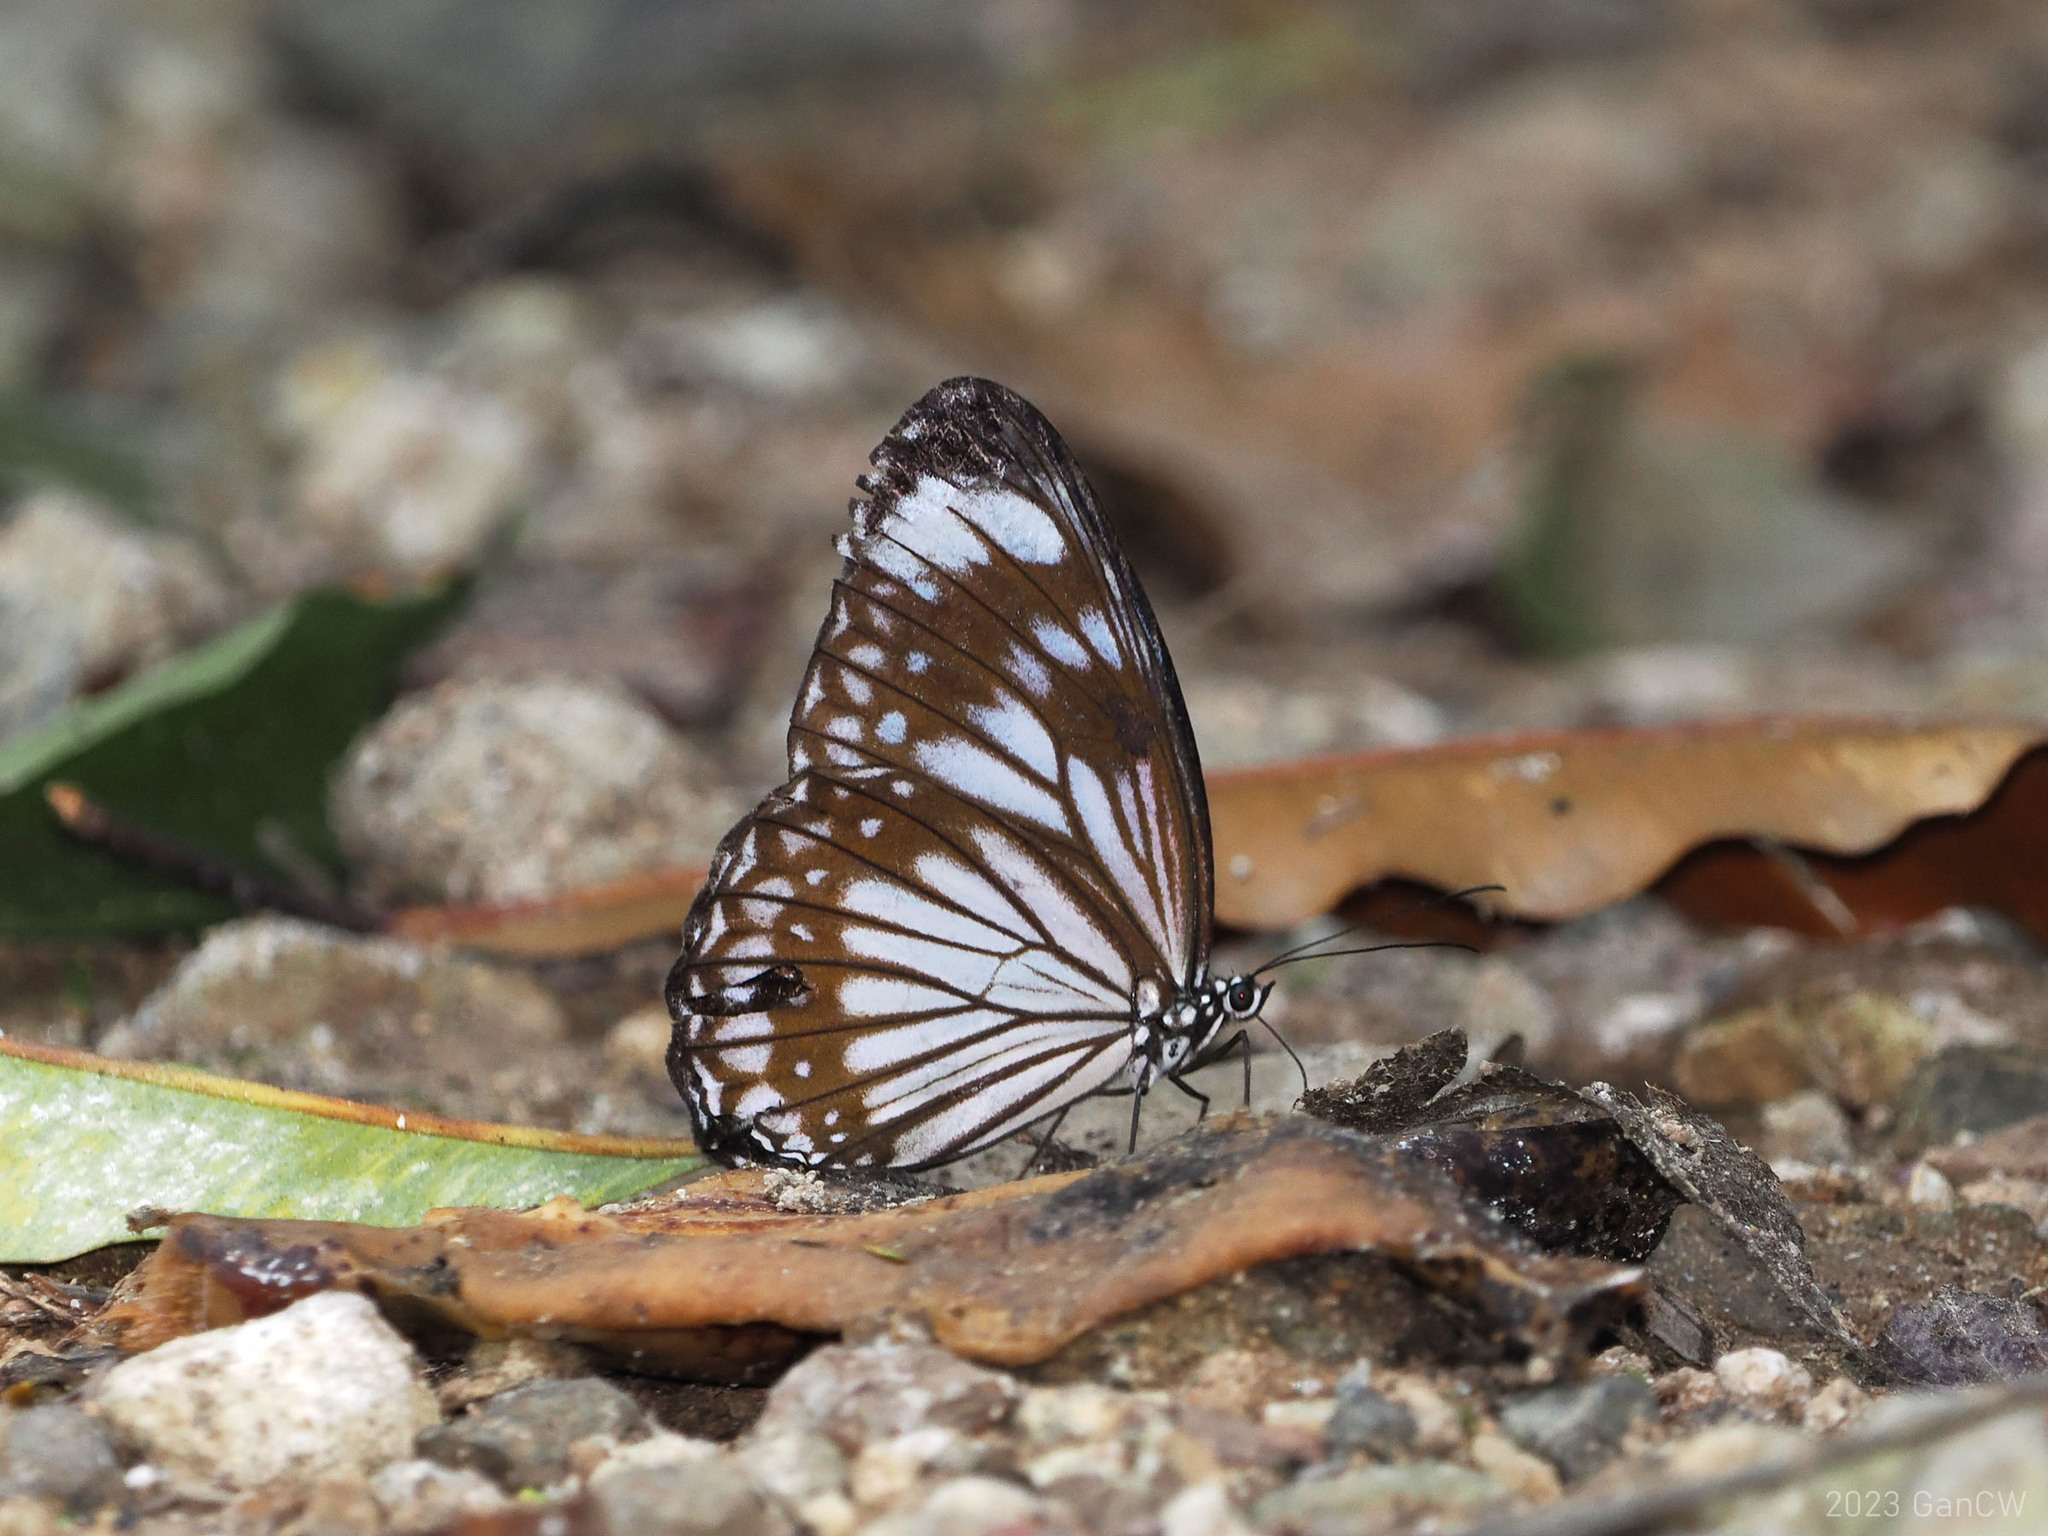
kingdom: Animalia
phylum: Arthropoda
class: Insecta
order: Lepidoptera
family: Nymphalidae
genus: Zethera
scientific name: Zethera pimplea
